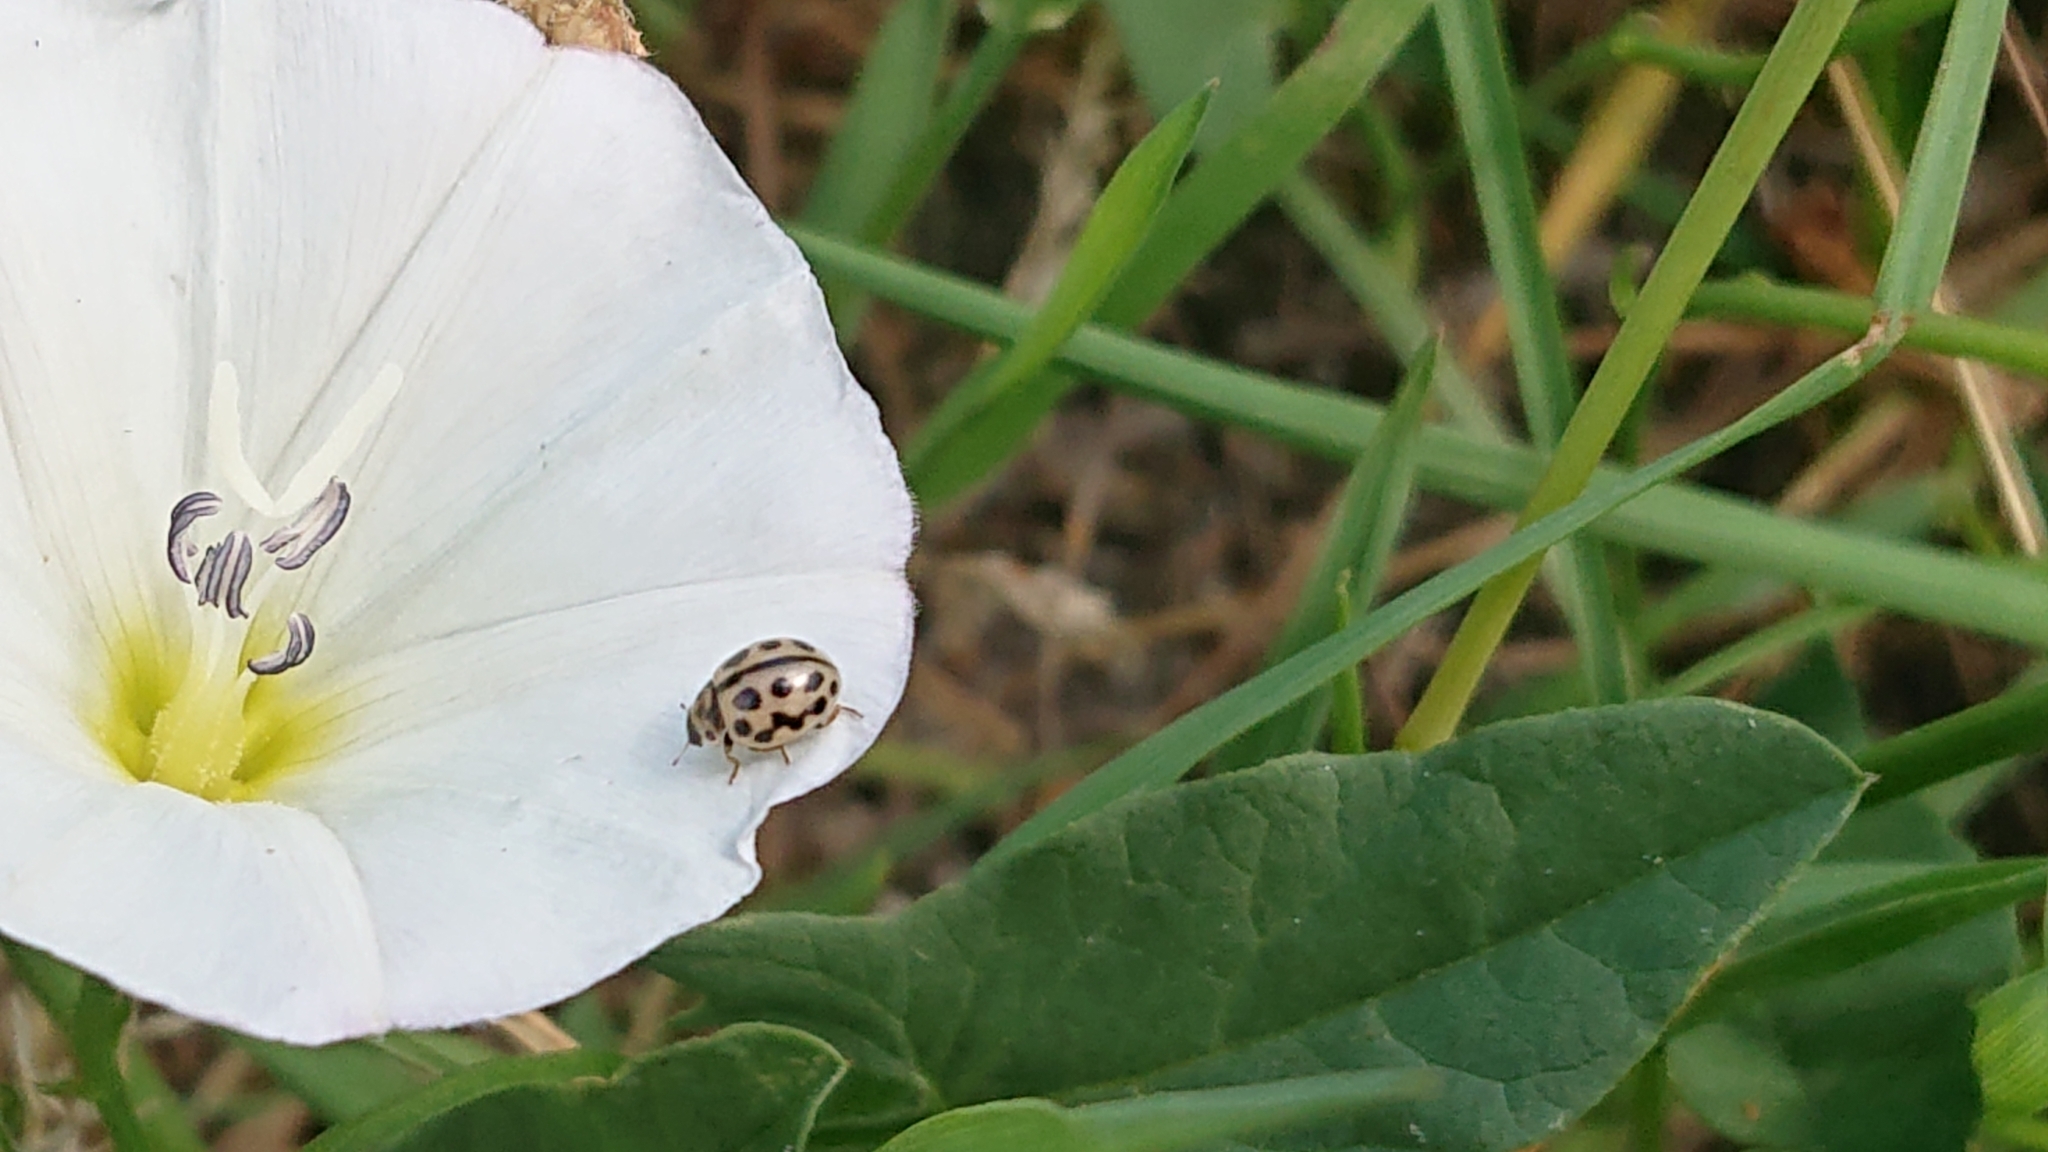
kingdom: Animalia
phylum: Arthropoda
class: Insecta
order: Coleoptera
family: Coccinellidae
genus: Tytthaspis
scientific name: Tytthaspis sedecimpunctata
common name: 16-spot ladybird
